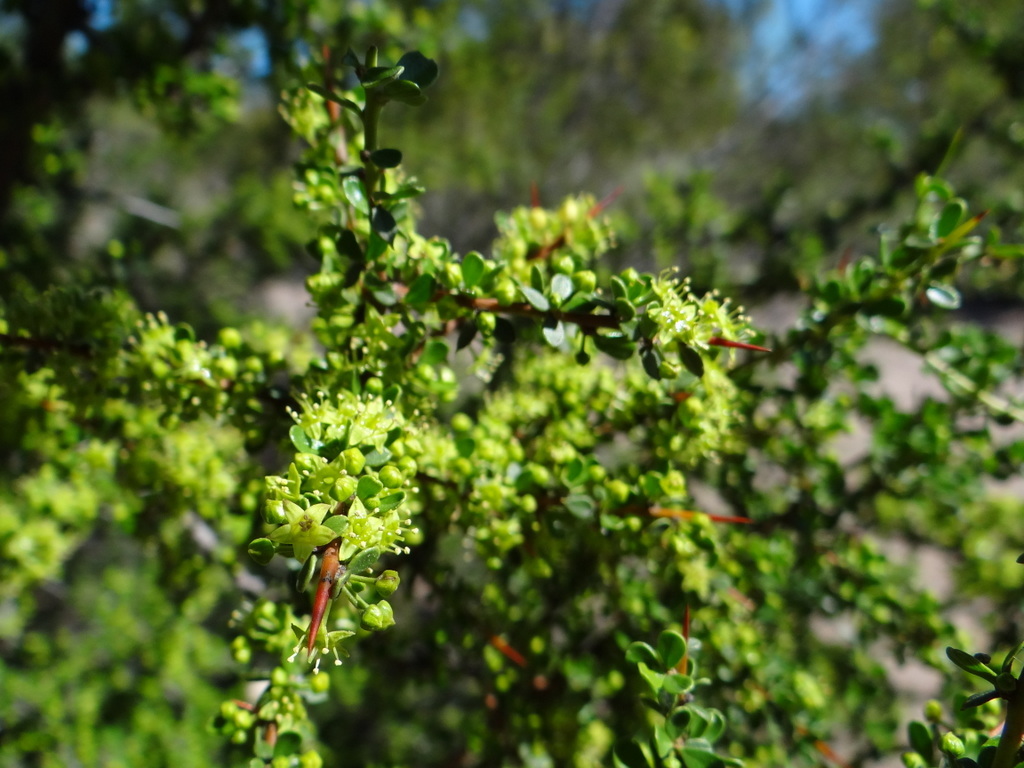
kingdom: Plantae
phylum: Tracheophyta
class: Magnoliopsida
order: Rosales
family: Rhamnaceae
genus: Condalia
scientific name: Condalia microphylla
